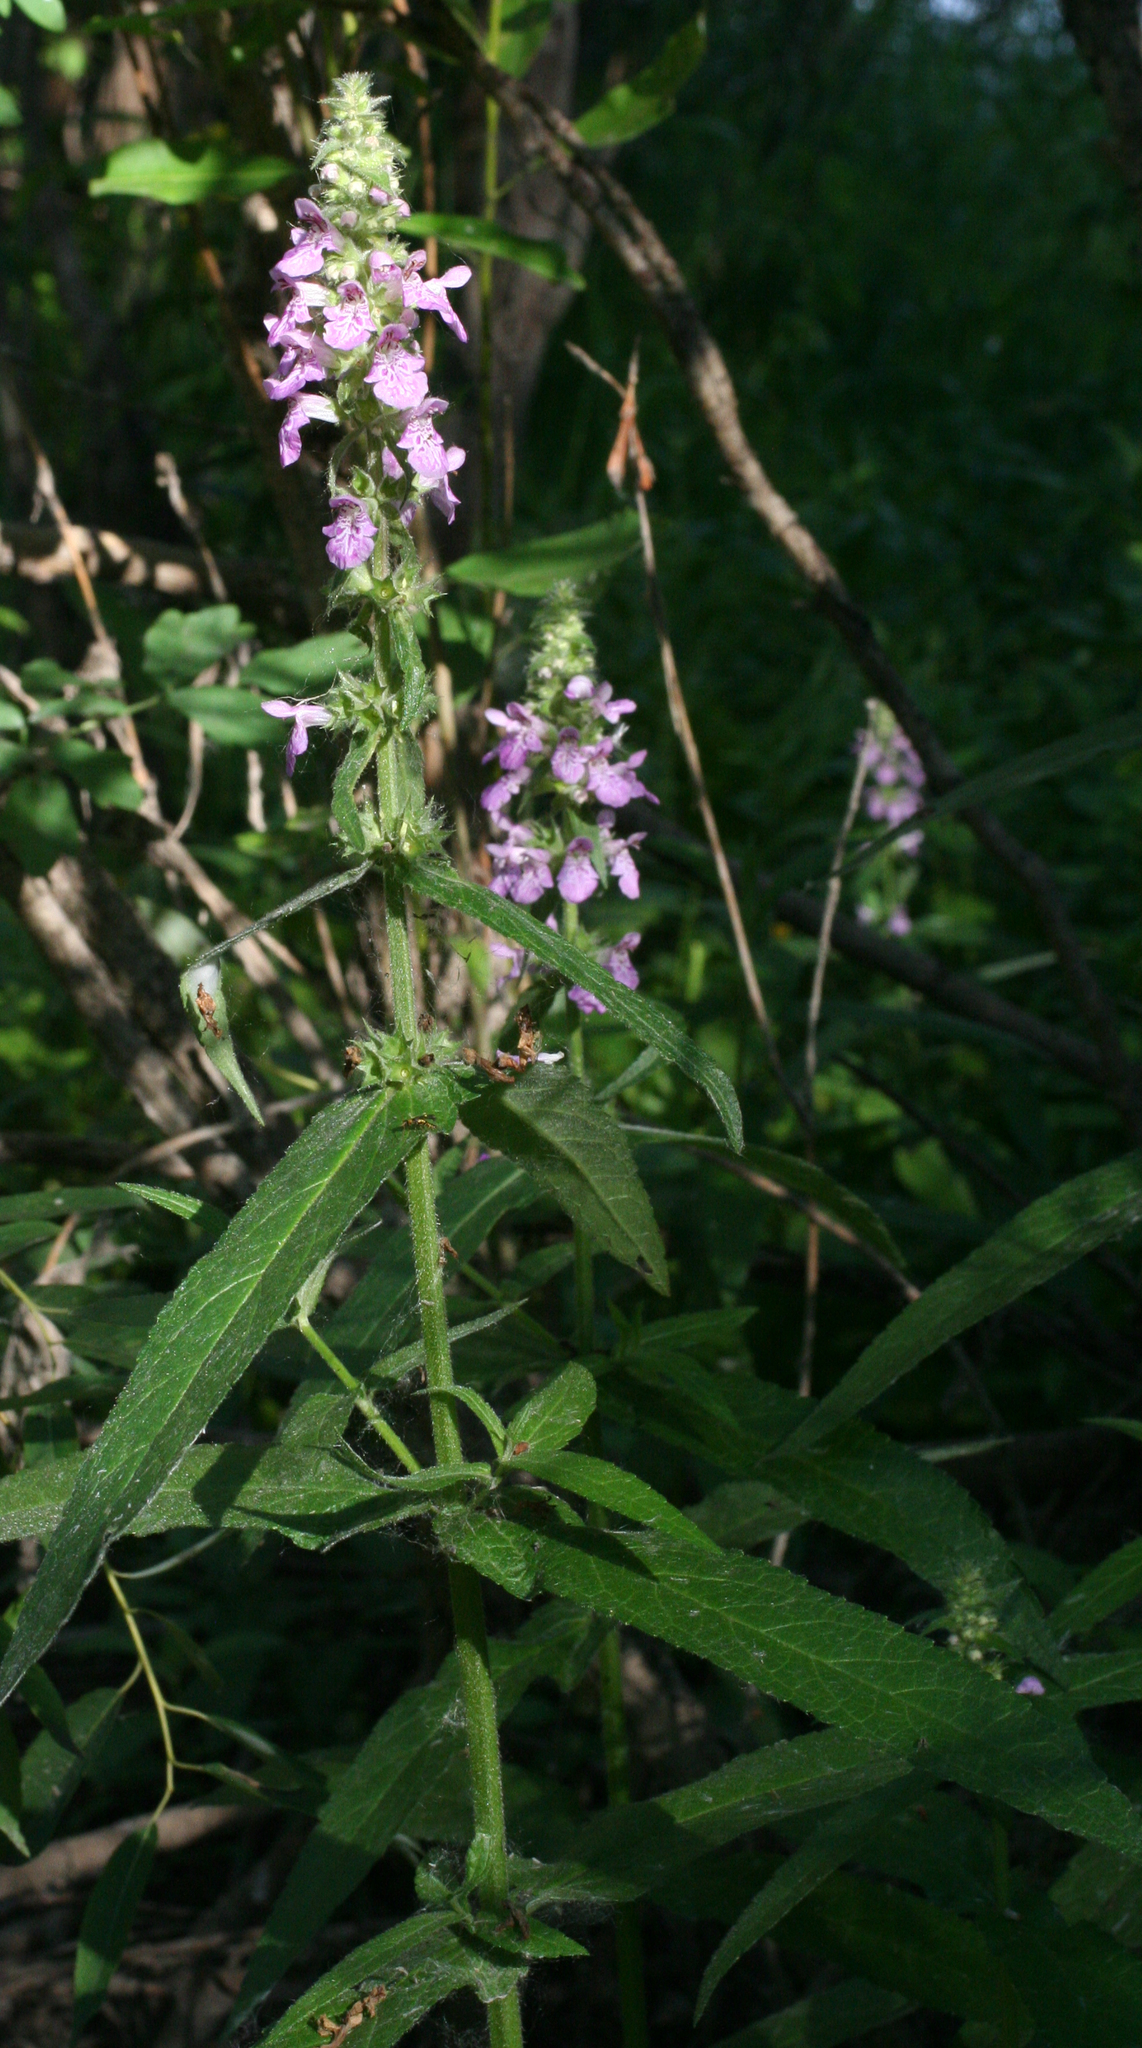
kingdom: Plantae
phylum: Tracheophyta
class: Magnoliopsida
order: Lamiales
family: Lamiaceae
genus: Stachys
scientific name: Stachys palustris
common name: Marsh woundwort
